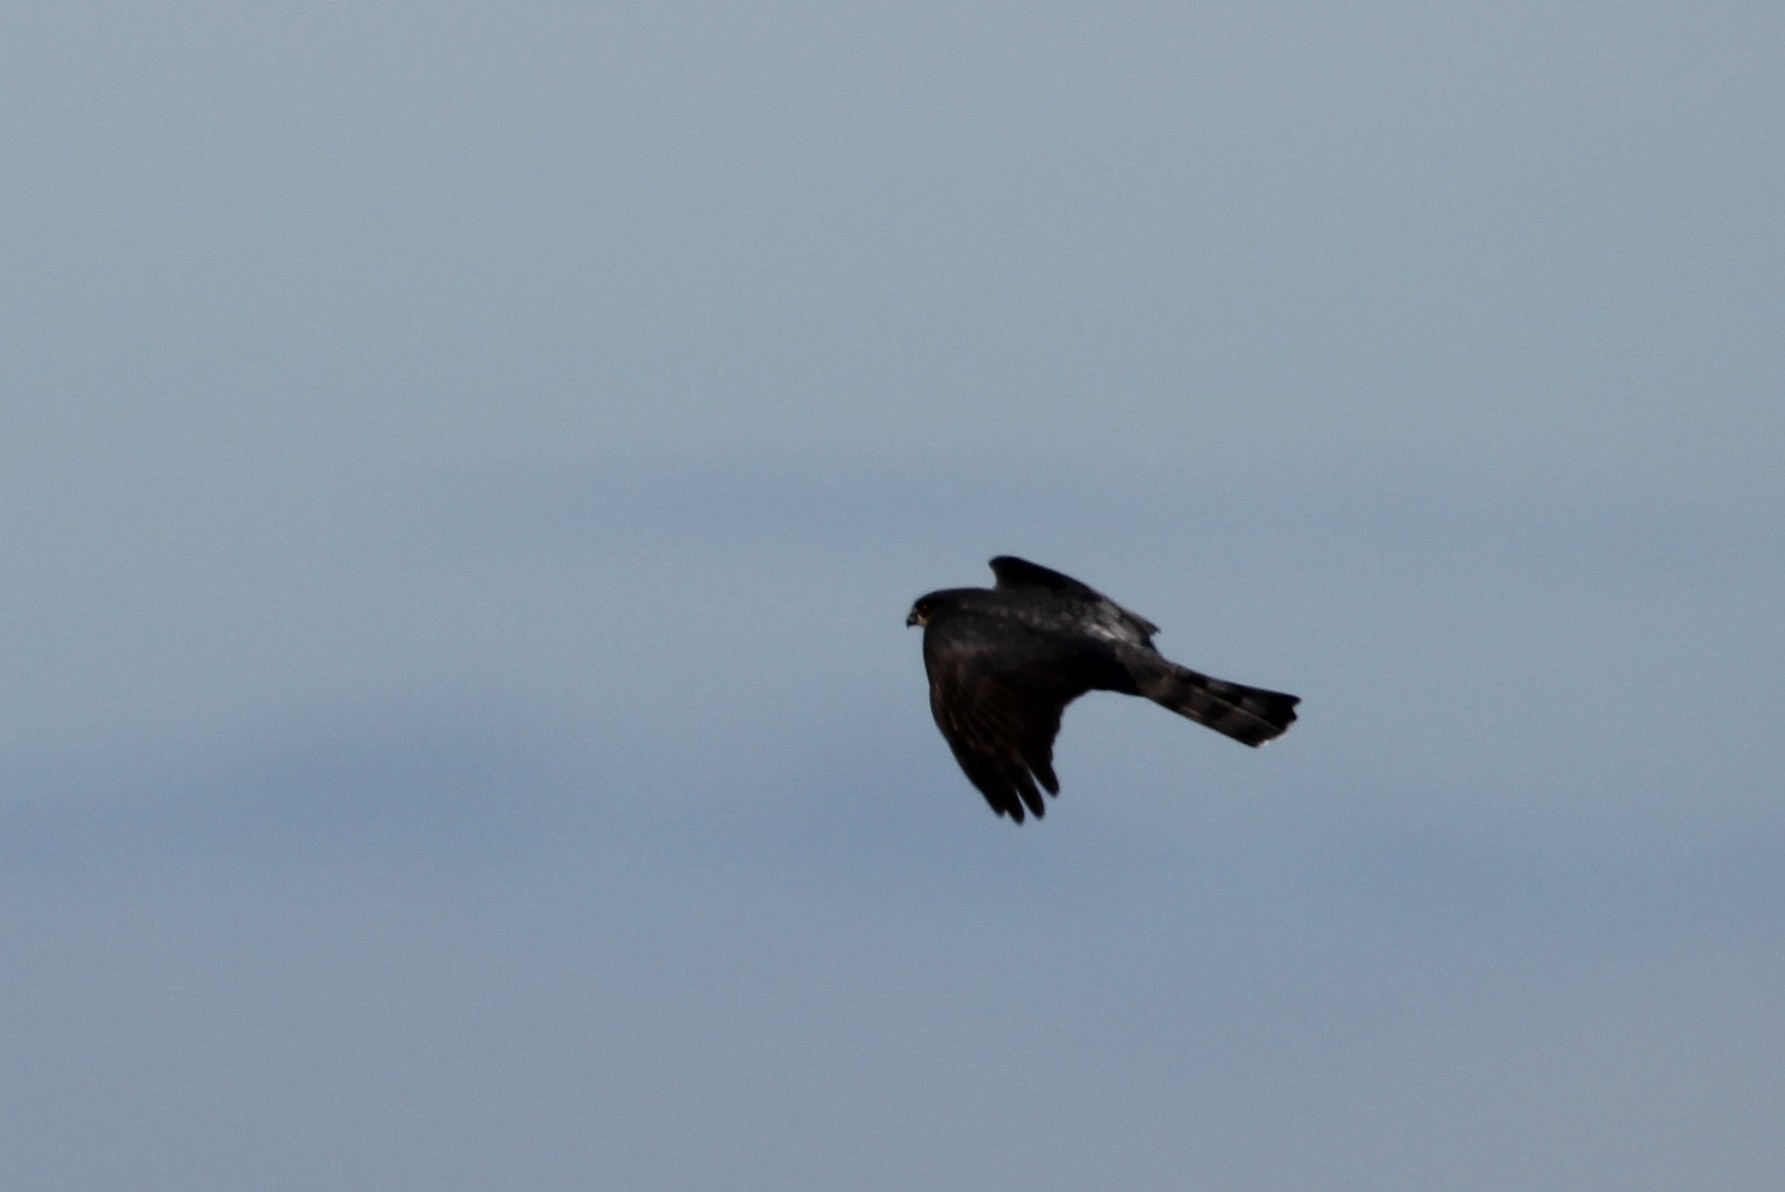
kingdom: Animalia
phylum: Chordata
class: Aves
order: Accipitriformes
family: Accipitridae
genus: Accipiter
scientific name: Accipiter cooperii
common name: Cooper's hawk
